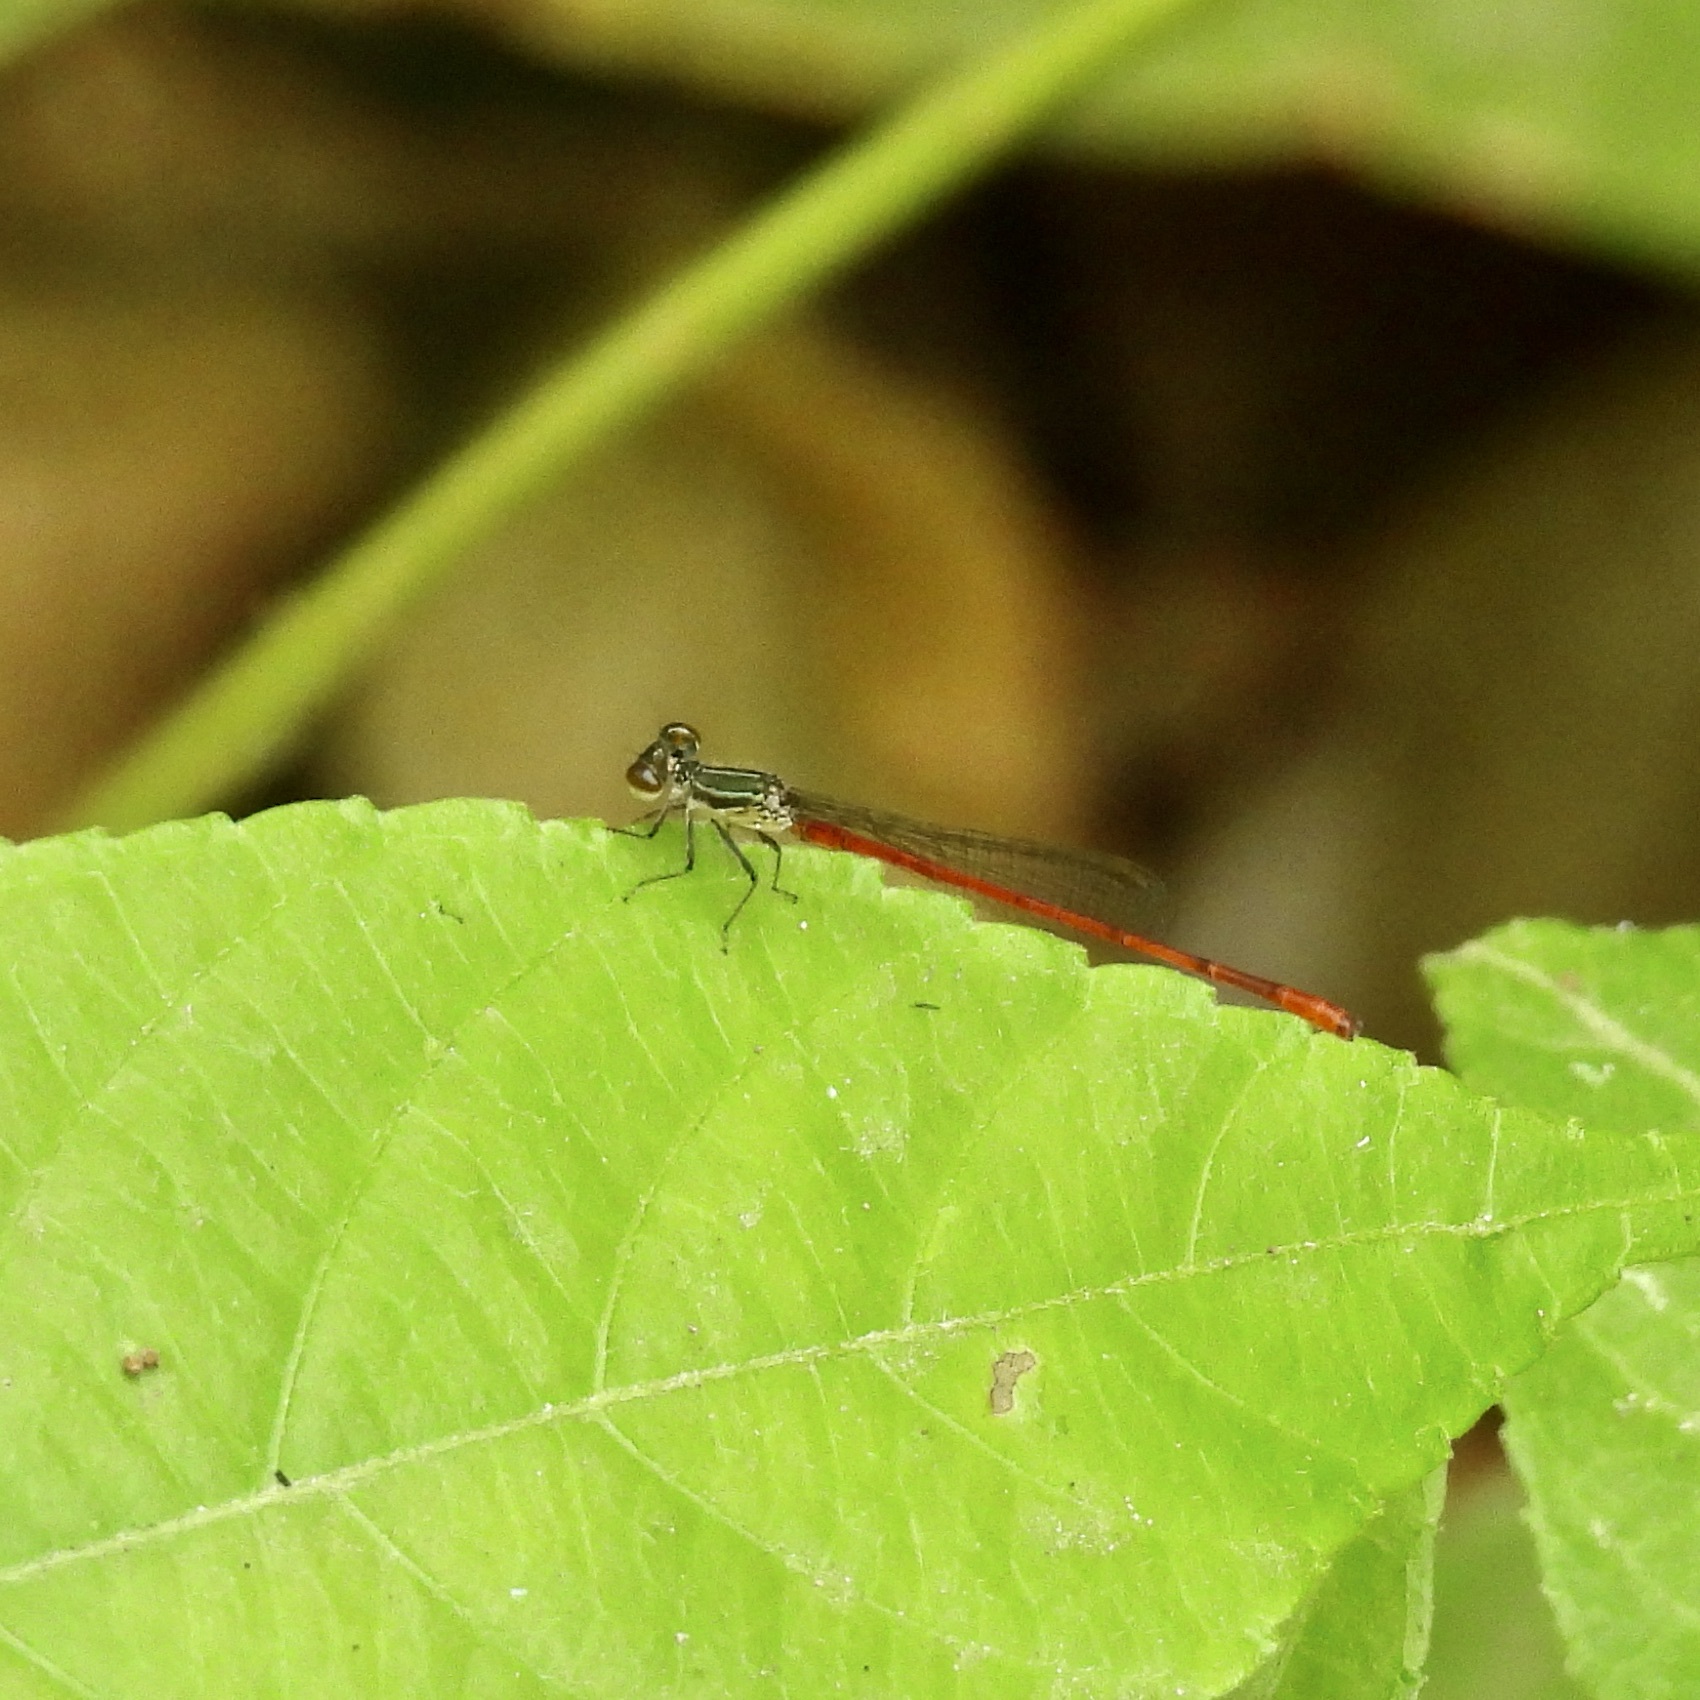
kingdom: Animalia
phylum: Arthropoda
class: Insecta
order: Odonata
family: Coenagrionidae
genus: Telebasis
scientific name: Telebasis filiola
